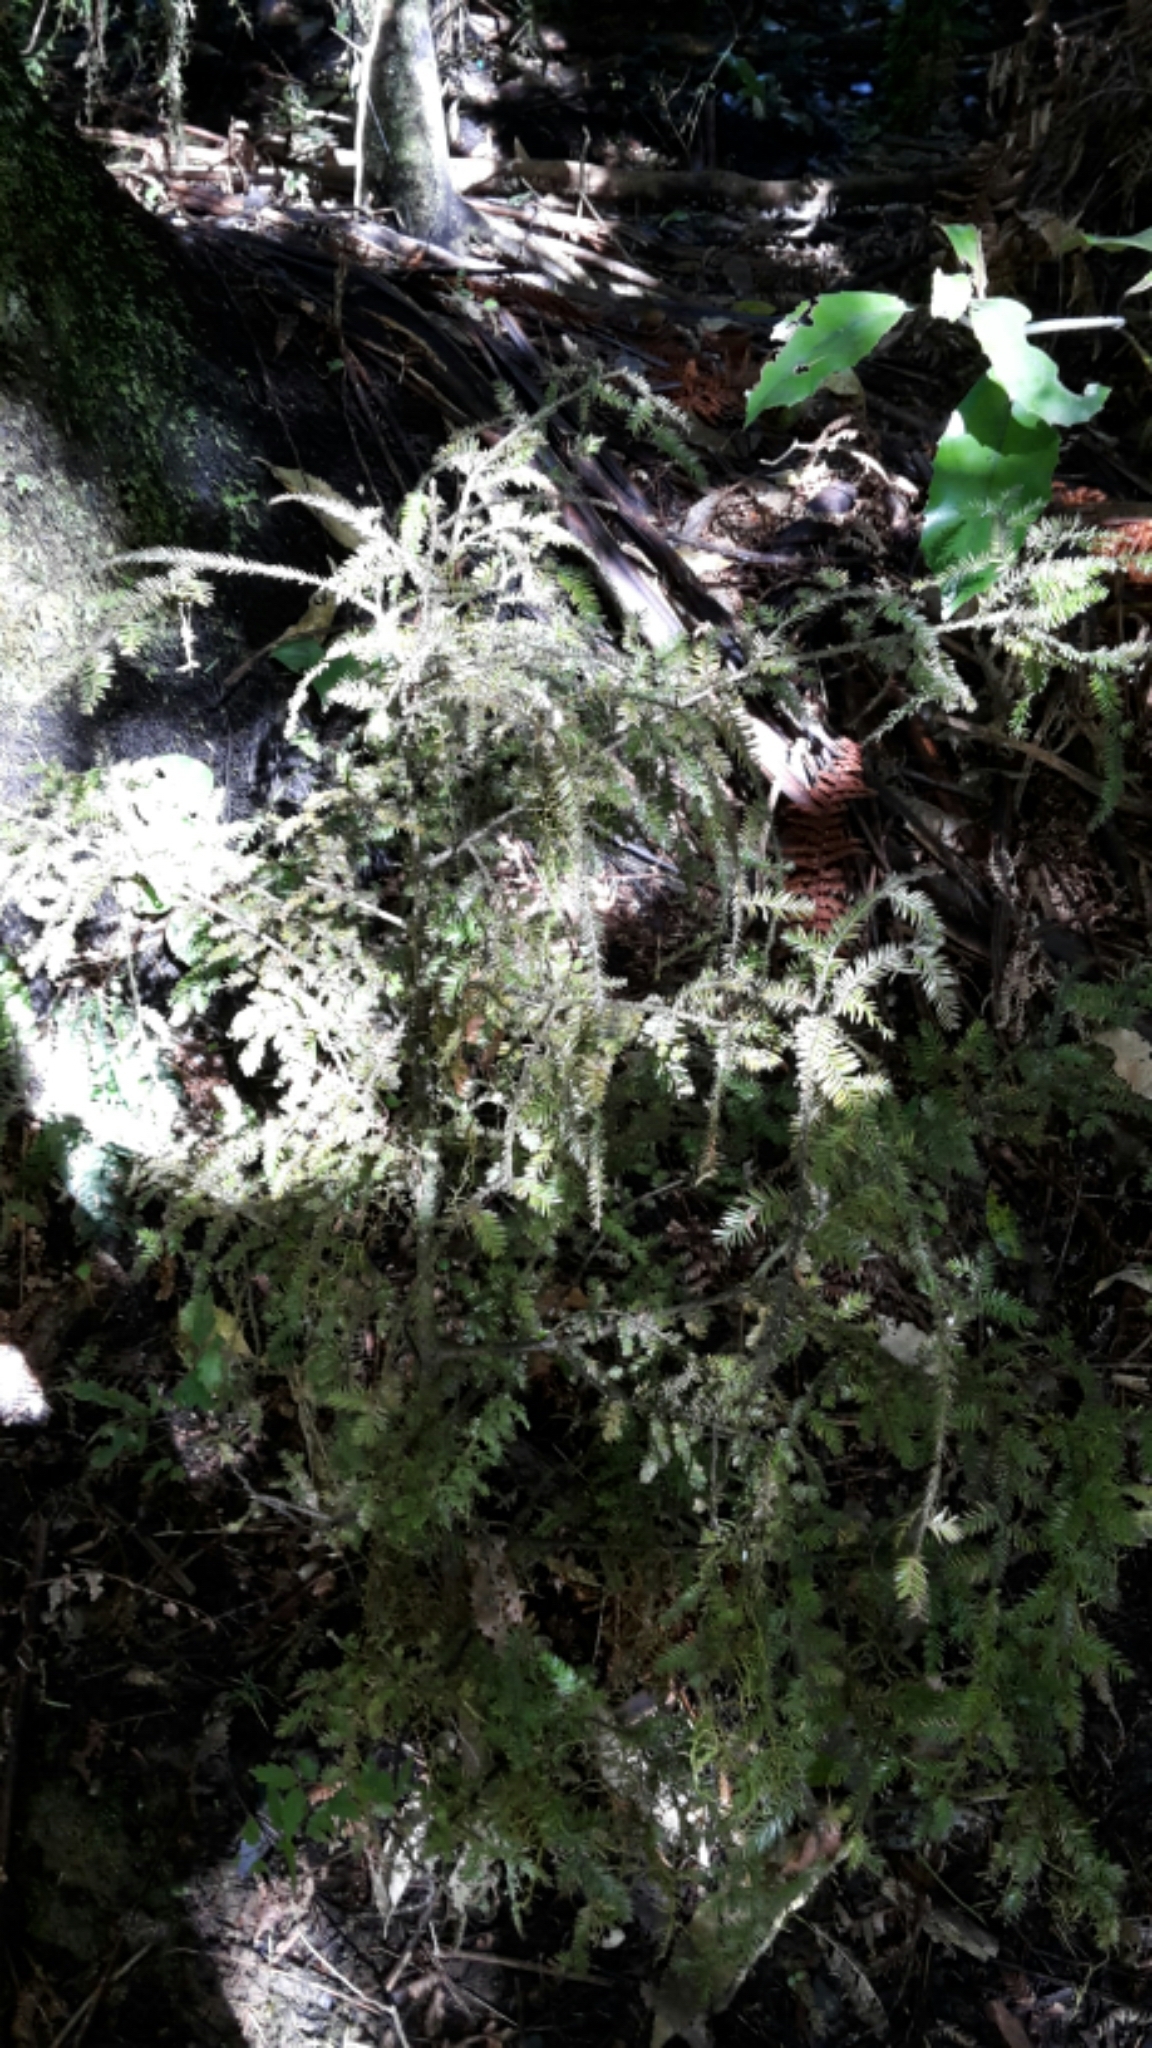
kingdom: Plantae
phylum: Tracheophyta
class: Pinopsida
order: Pinales
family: Podocarpaceae
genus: Dacrycarpus
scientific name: Dacrycarpus dacrydioides
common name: White pine
